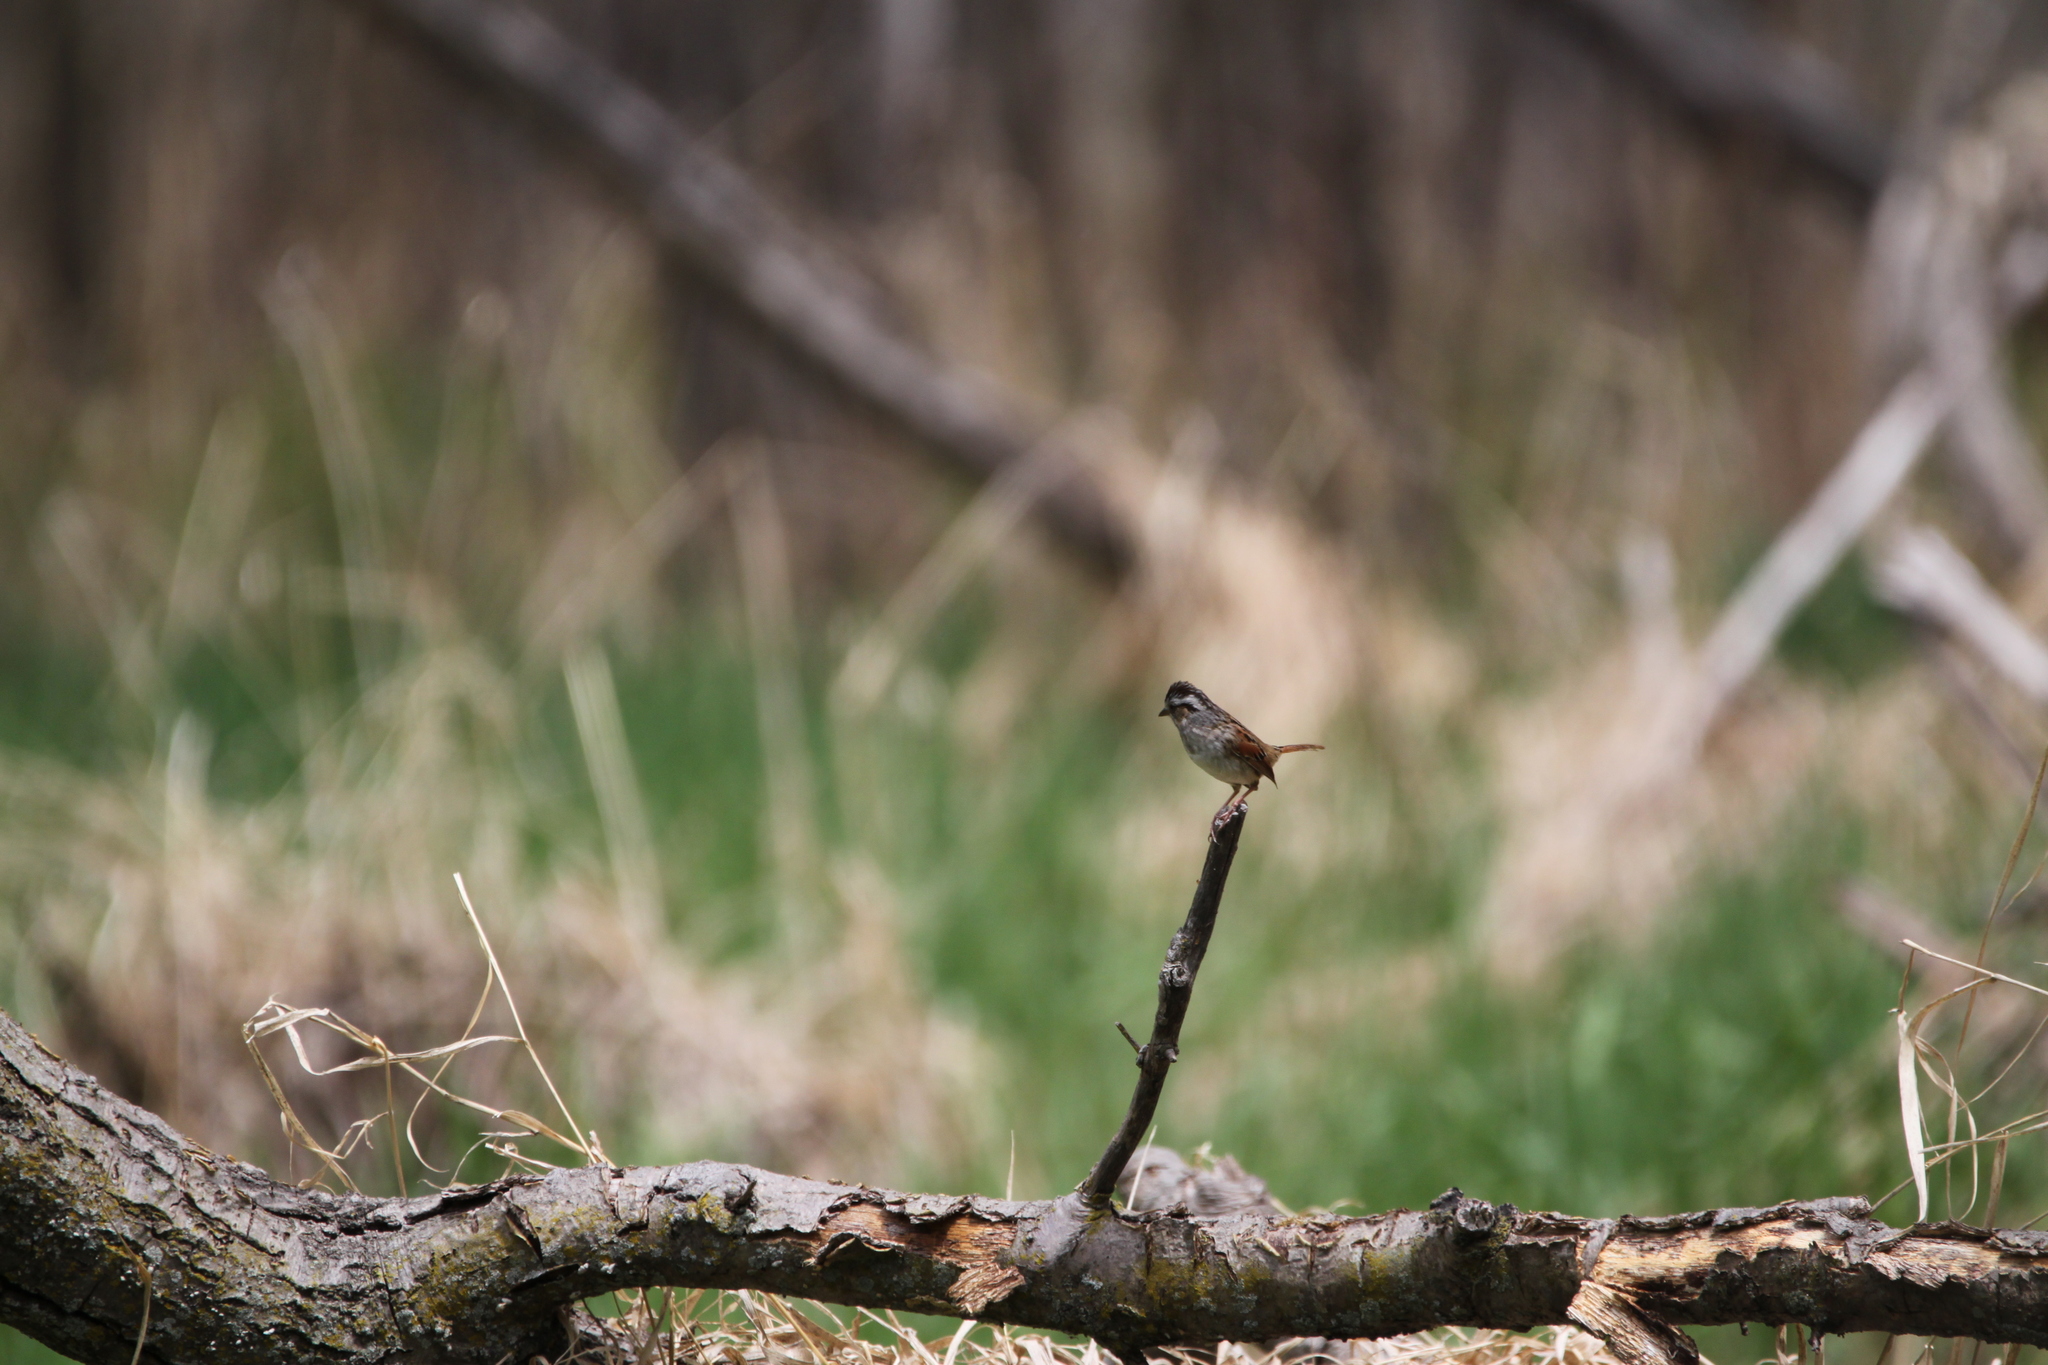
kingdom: Animalia
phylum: Chordata
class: Aves
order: Passeriformes
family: Passerellidae
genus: Melospiza
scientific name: Melospiza georgiana
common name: Swamp sparrow
